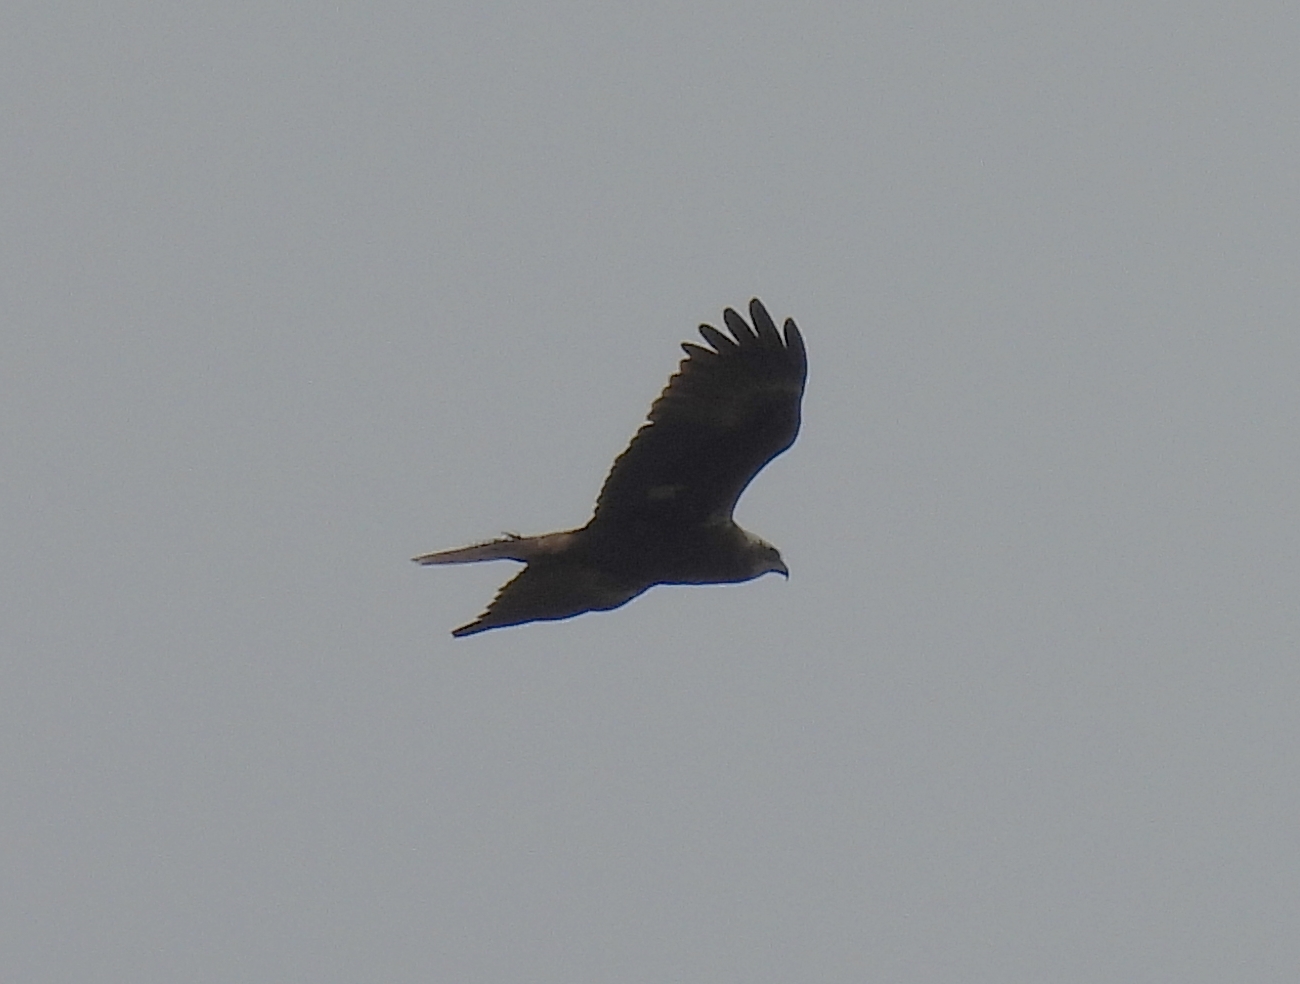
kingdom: Animalia
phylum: Chordata
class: Aves
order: Accipitriformes
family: Accipitridae
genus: Circus
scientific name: Circus aeruginosus
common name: Western marsh harrier
